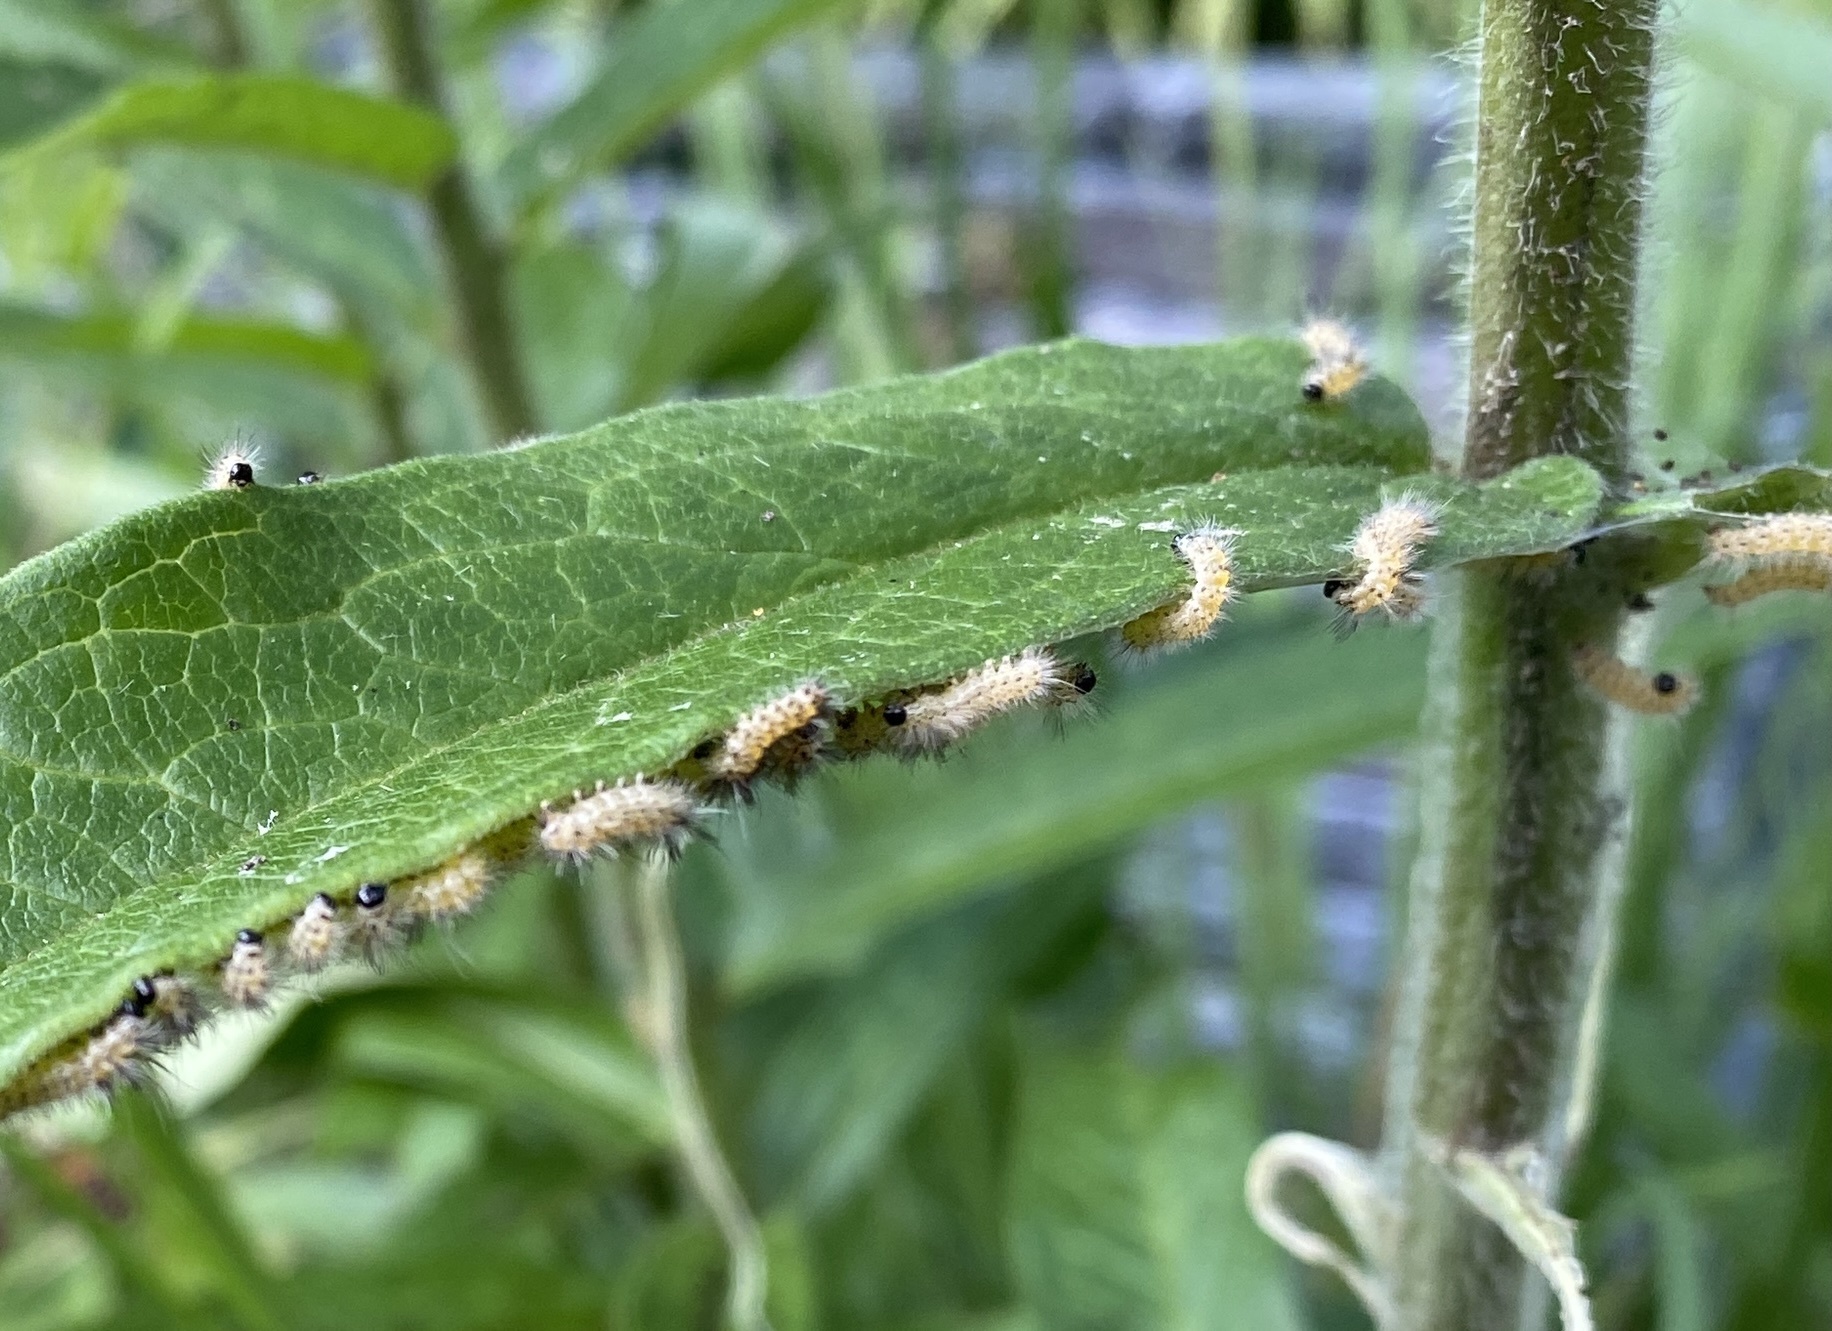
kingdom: Animalia
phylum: Arthropoda
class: Insecta
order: Lepidoptera
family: Erebidae
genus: Euchaetes
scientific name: Euchaetes egle
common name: Milkweed tussock moth
